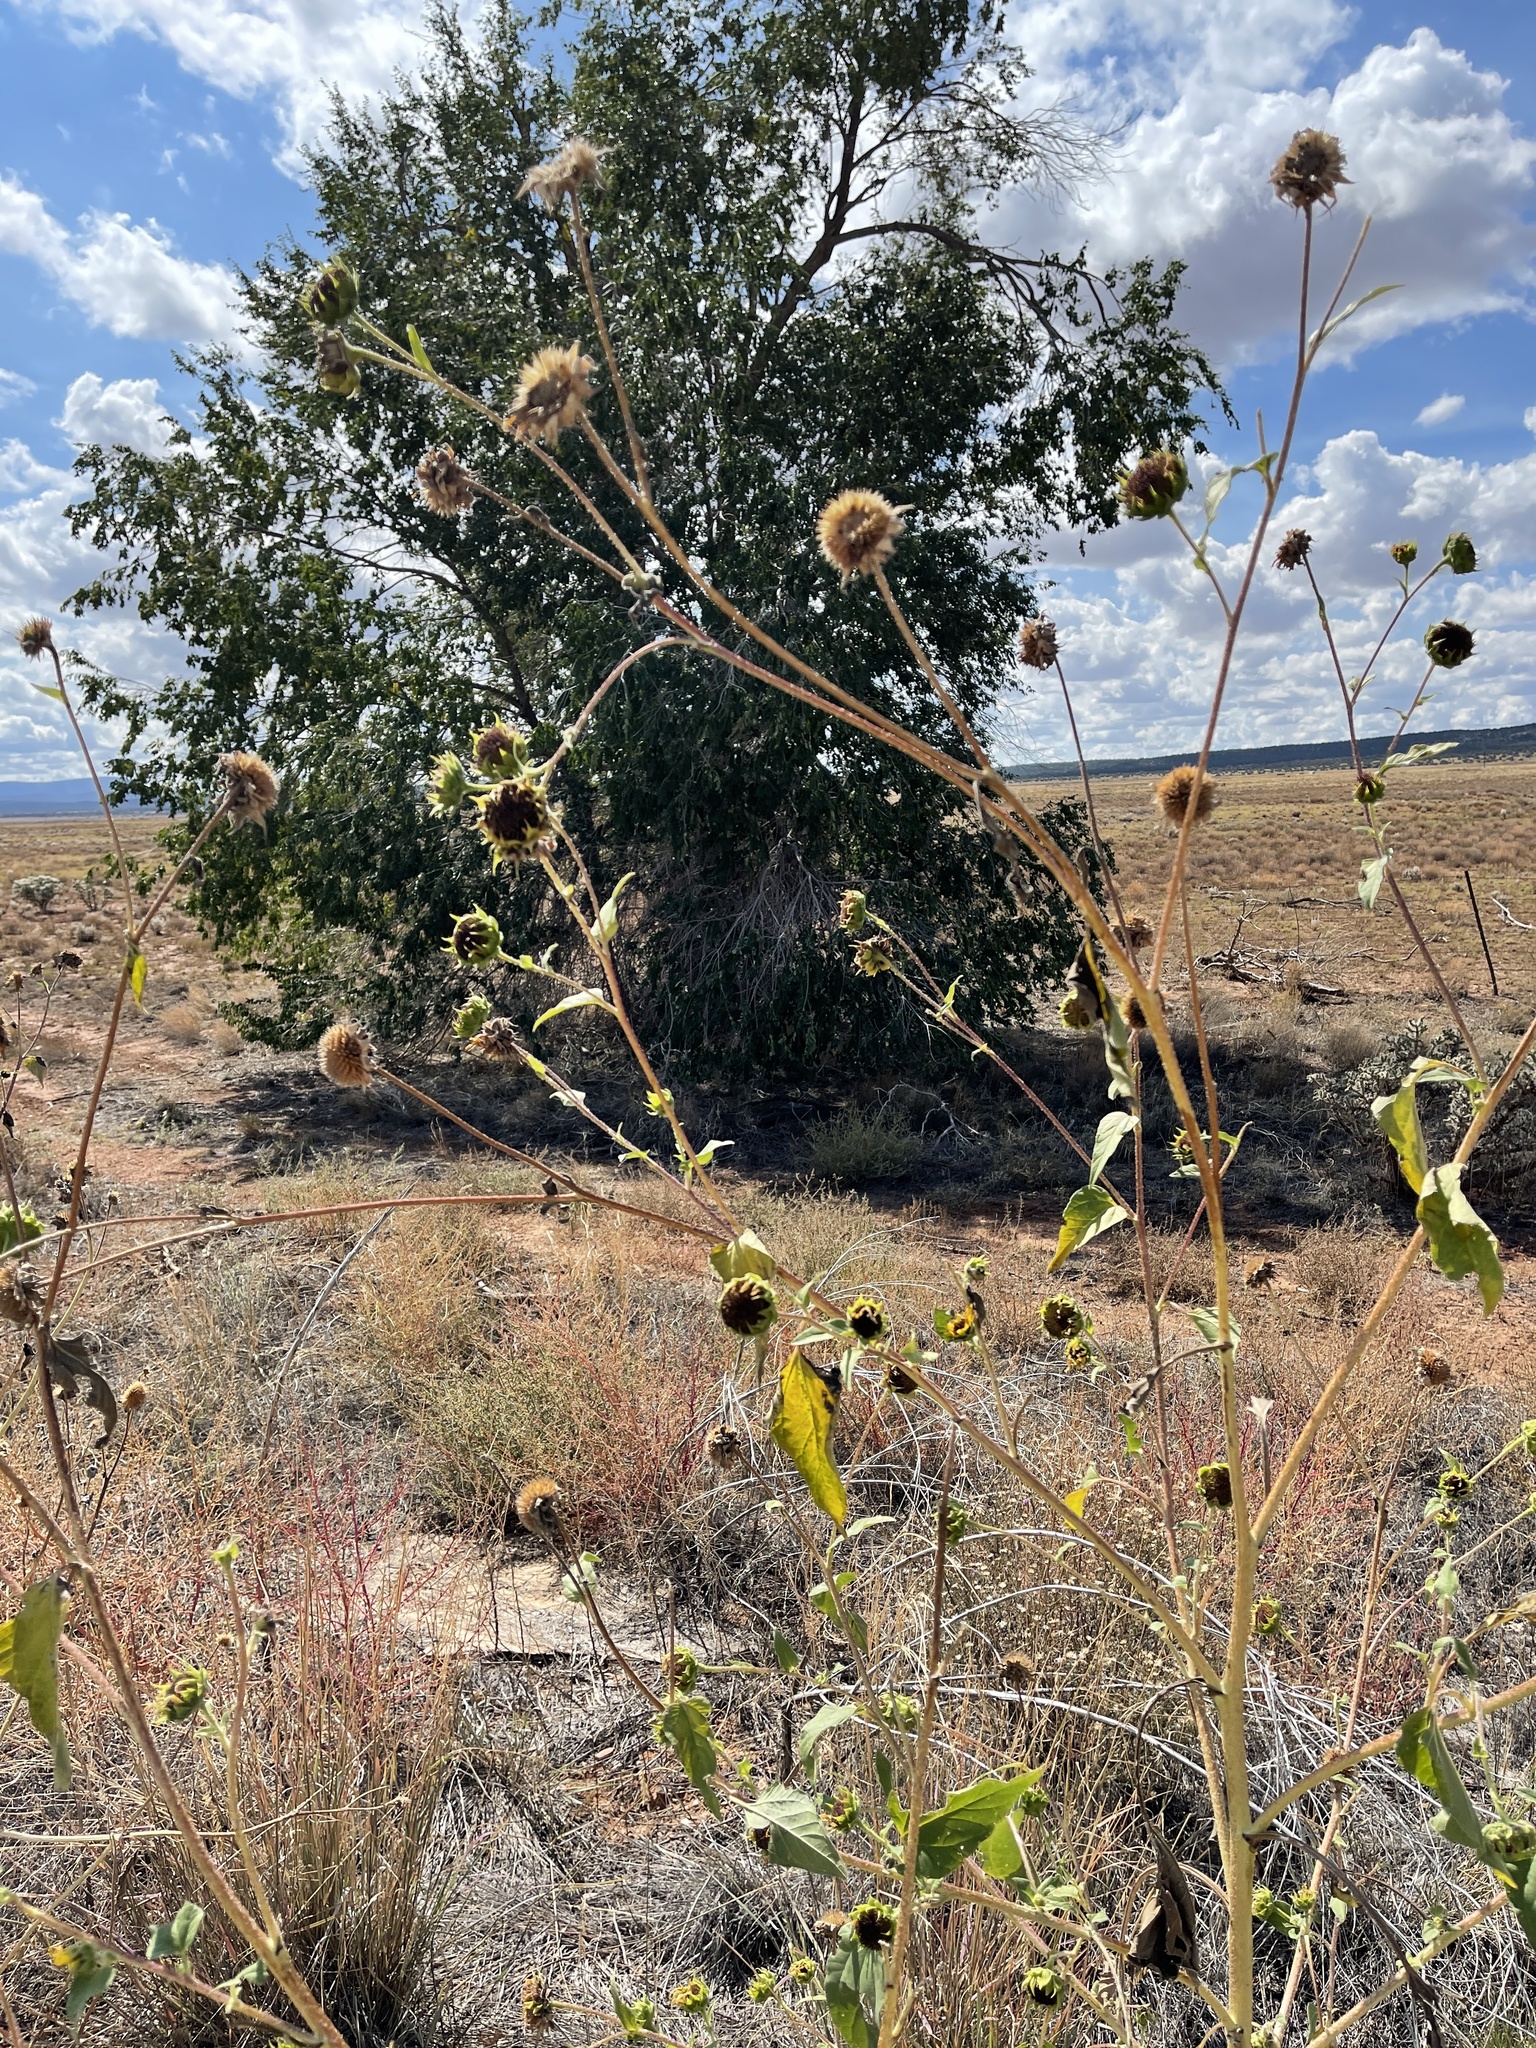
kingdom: Plantae
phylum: Tracheophyta
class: Magnoliopsida
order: Asterales
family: Asteraceae
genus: Helianthus
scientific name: Helianthus petiolaris
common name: Lesser sunflower
